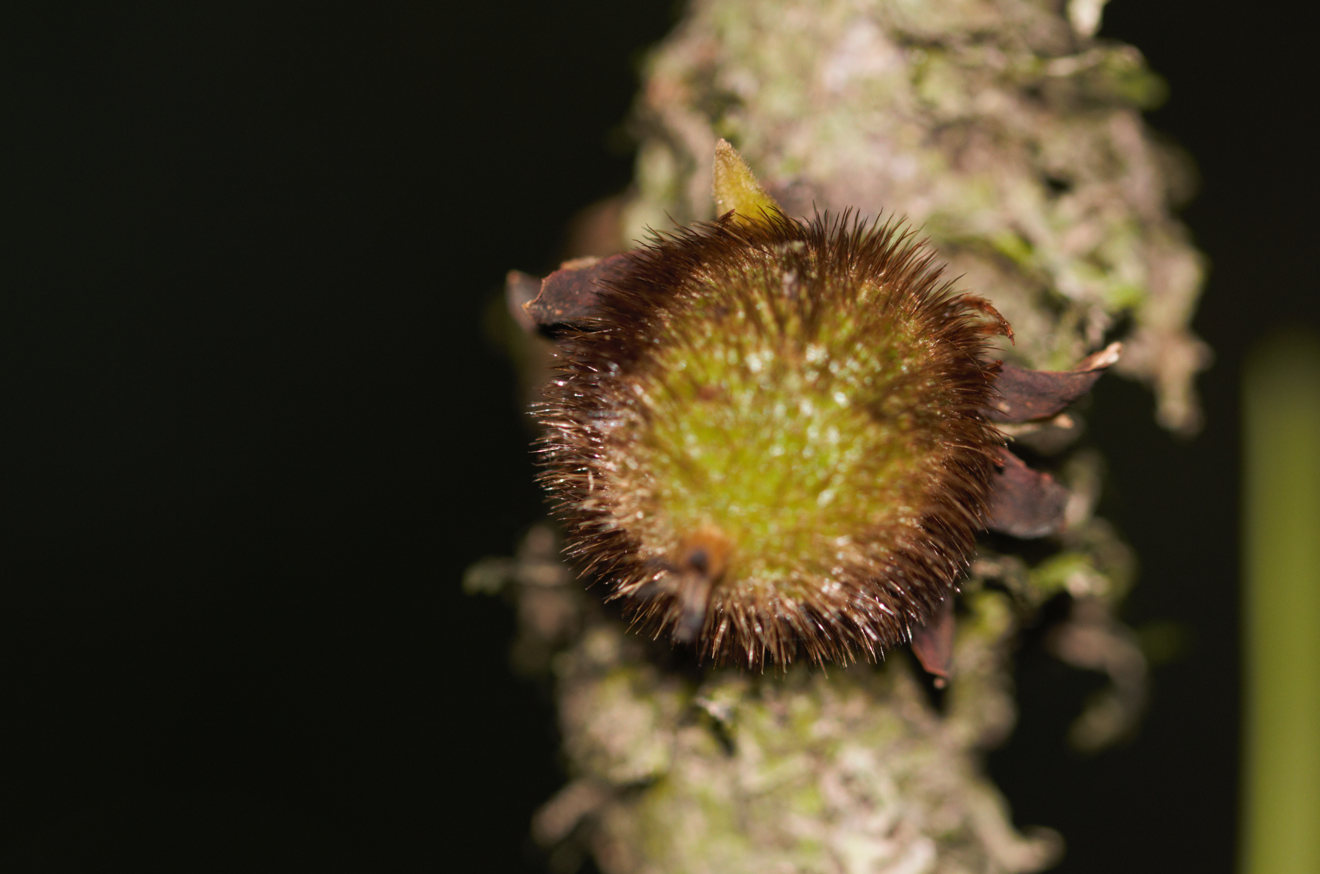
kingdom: Plantae
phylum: Tracheophyta
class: Magnoliopsida
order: Ericales
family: Ebenaceae
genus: Diospyros
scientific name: Diospyros ropourea
